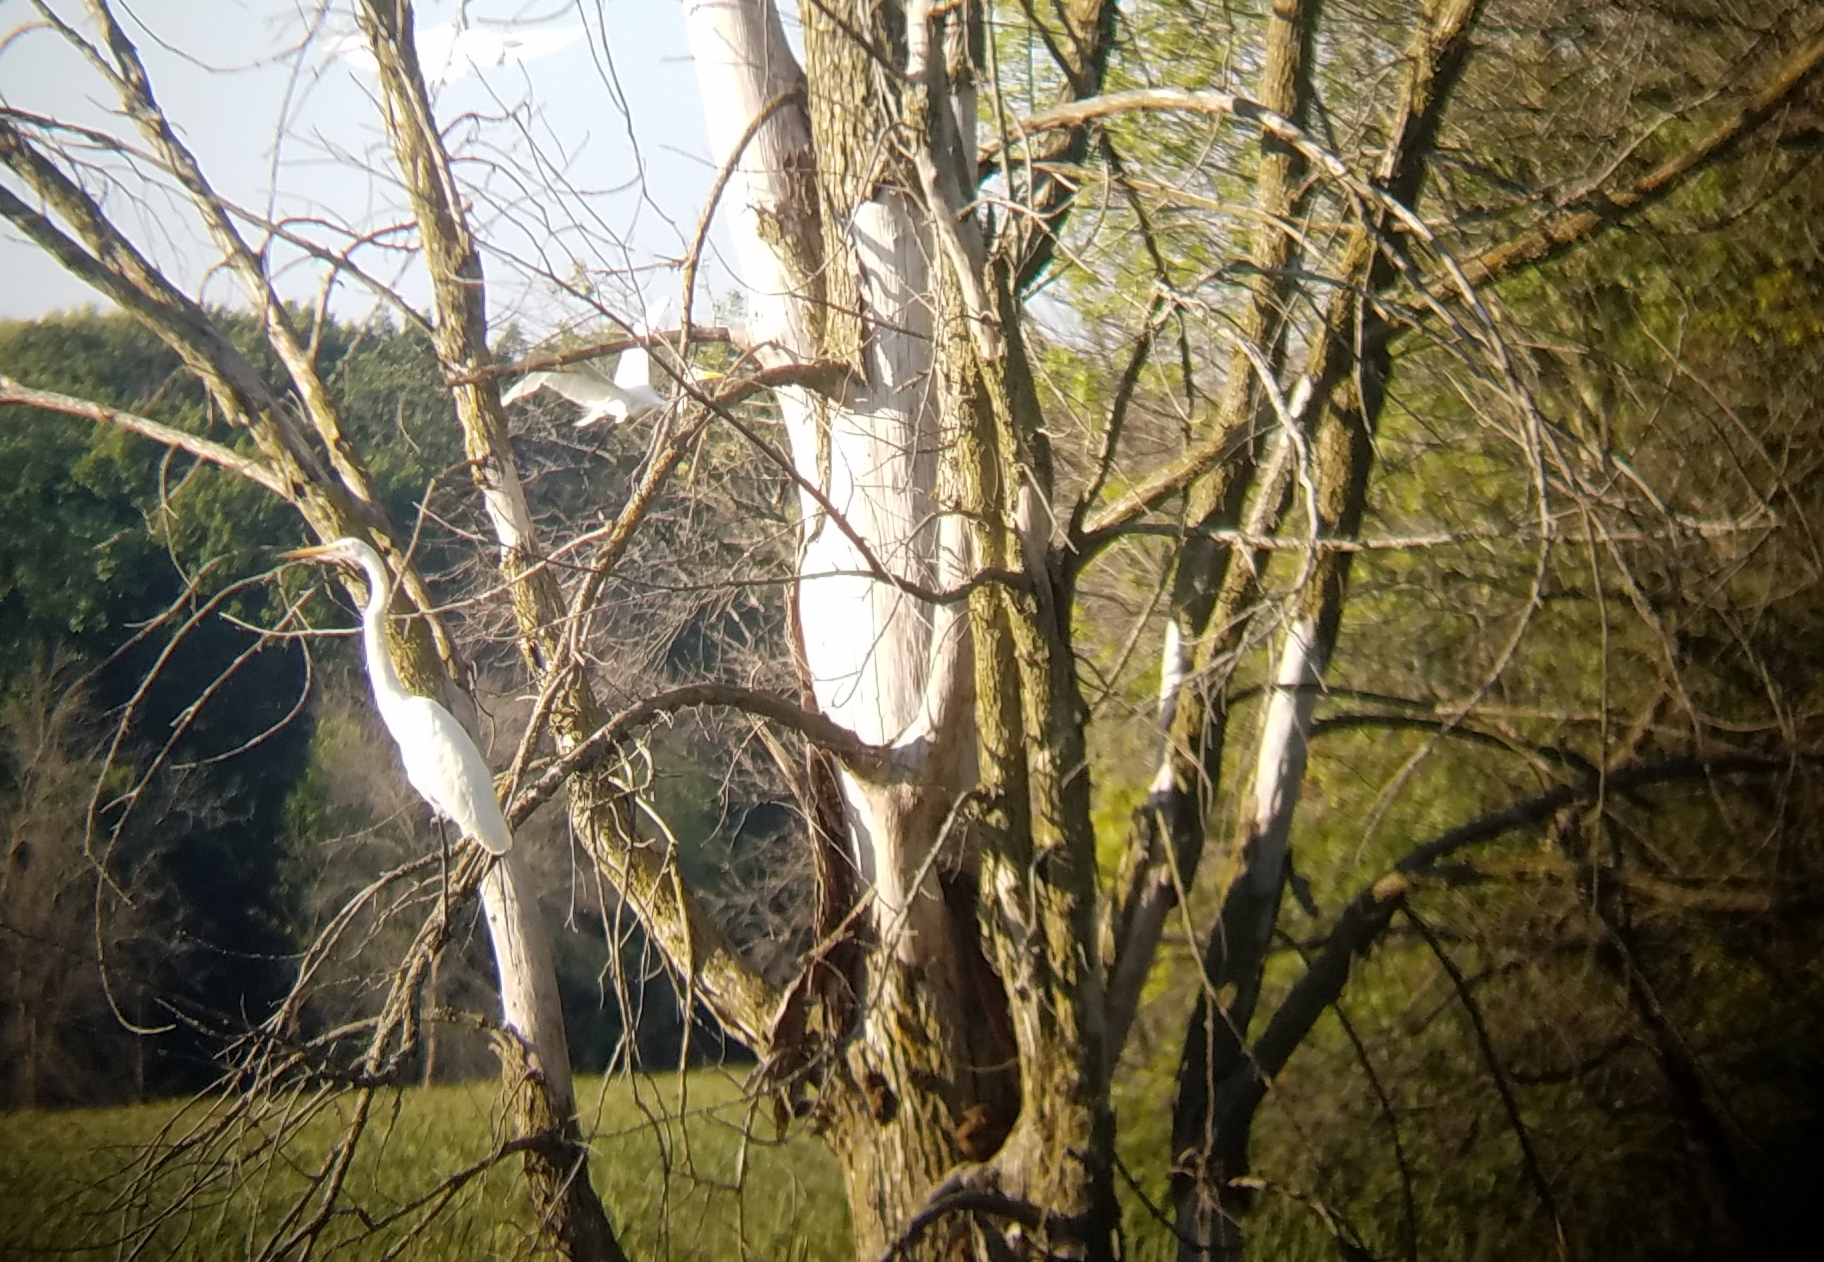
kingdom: Animalia
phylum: Chordata
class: Aves
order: Pelecaniformes
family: Ardeidae
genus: Ardea
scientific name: Ardea alba
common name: Great egret
